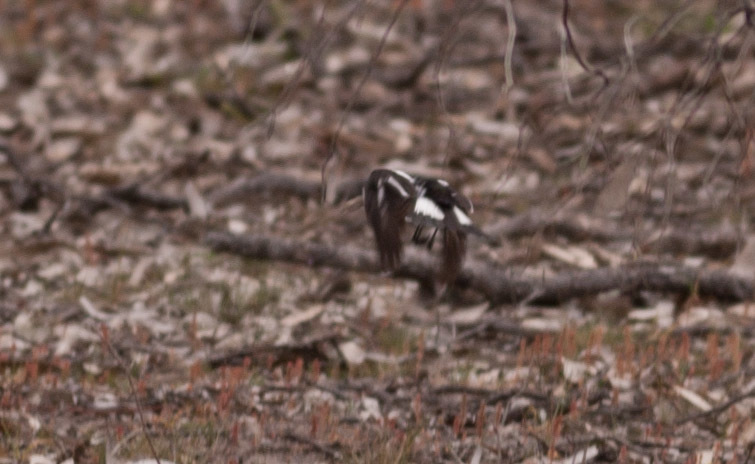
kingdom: Animalia
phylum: Chordata
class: Aves
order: Passeriformes
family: Monarchidae
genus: Grallina
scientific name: Grallina cyanoleuca
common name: Magpie-lark
